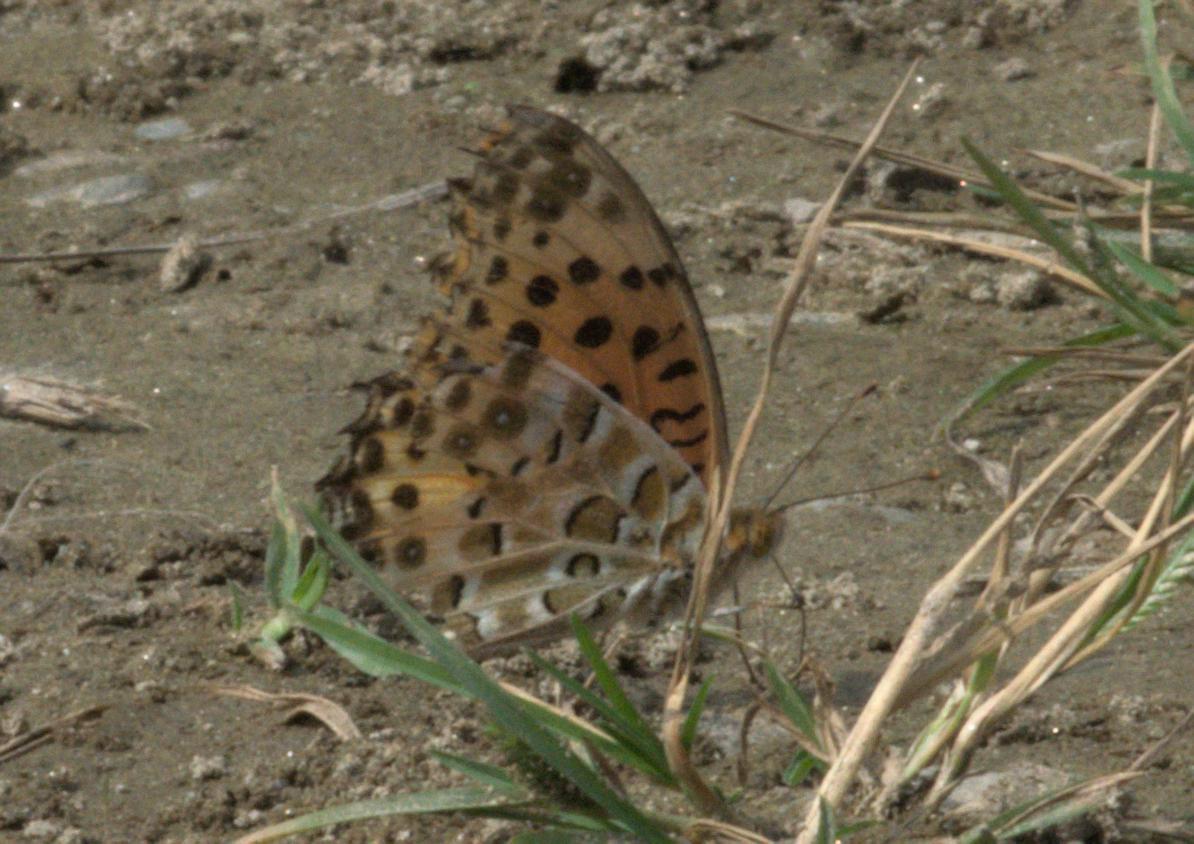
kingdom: Animalia
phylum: Arthropoda
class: Insecta
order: Lepidoptera
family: Nymphalidae
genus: Argynnis
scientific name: Argynnis hyperbius
